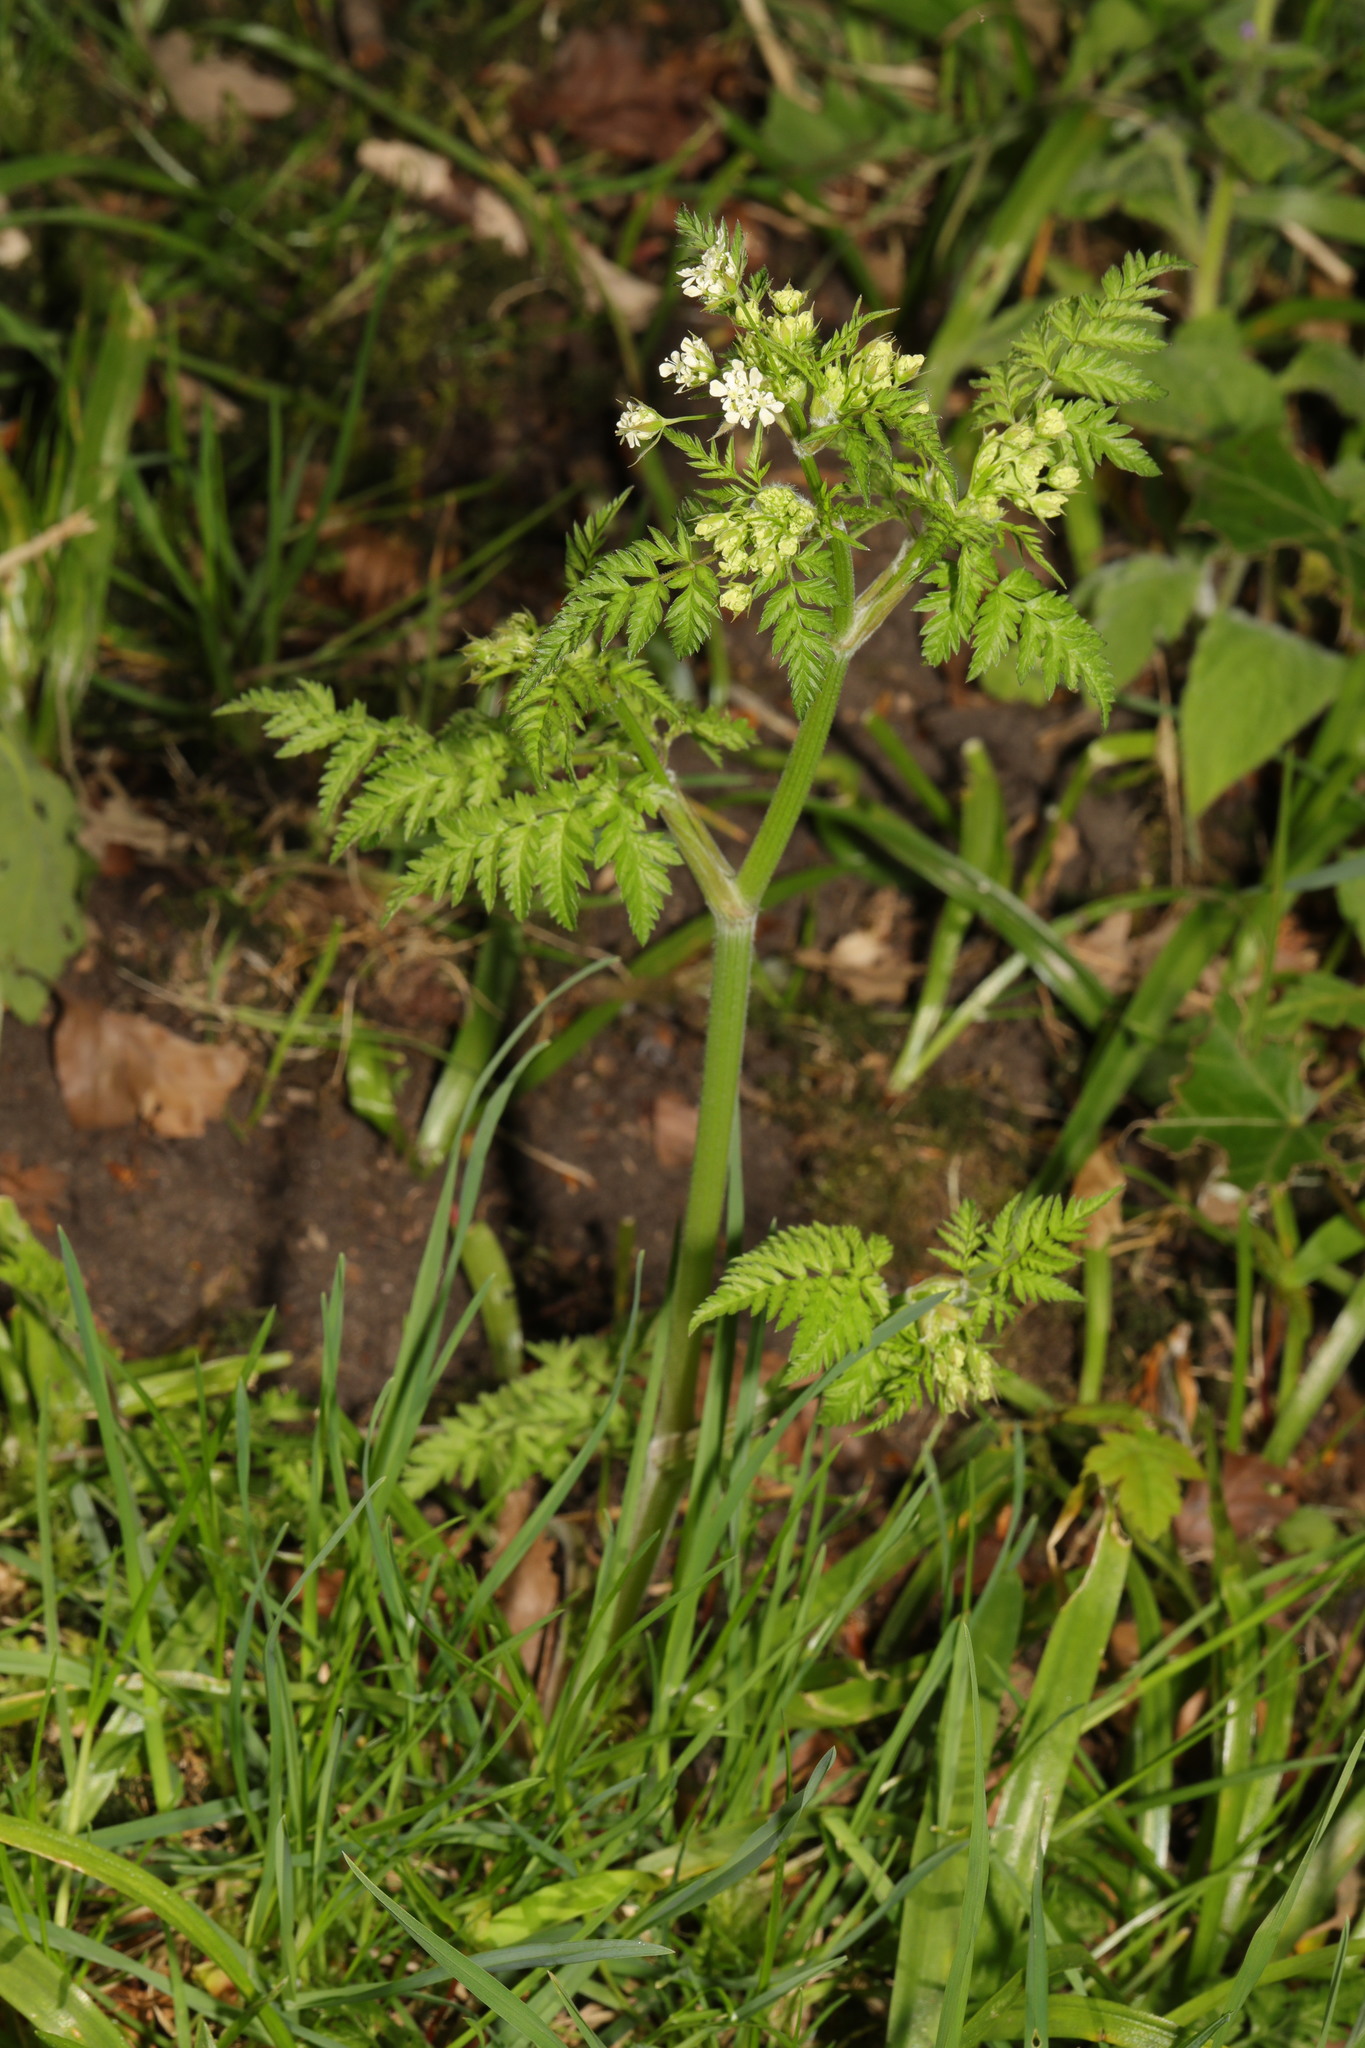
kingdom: Plantae
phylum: Tracheophyta
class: Magnoliopsida
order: Apiales
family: Apiaceae
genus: Anthriscus
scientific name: Anthriscus sylvestris
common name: Cow parsley
